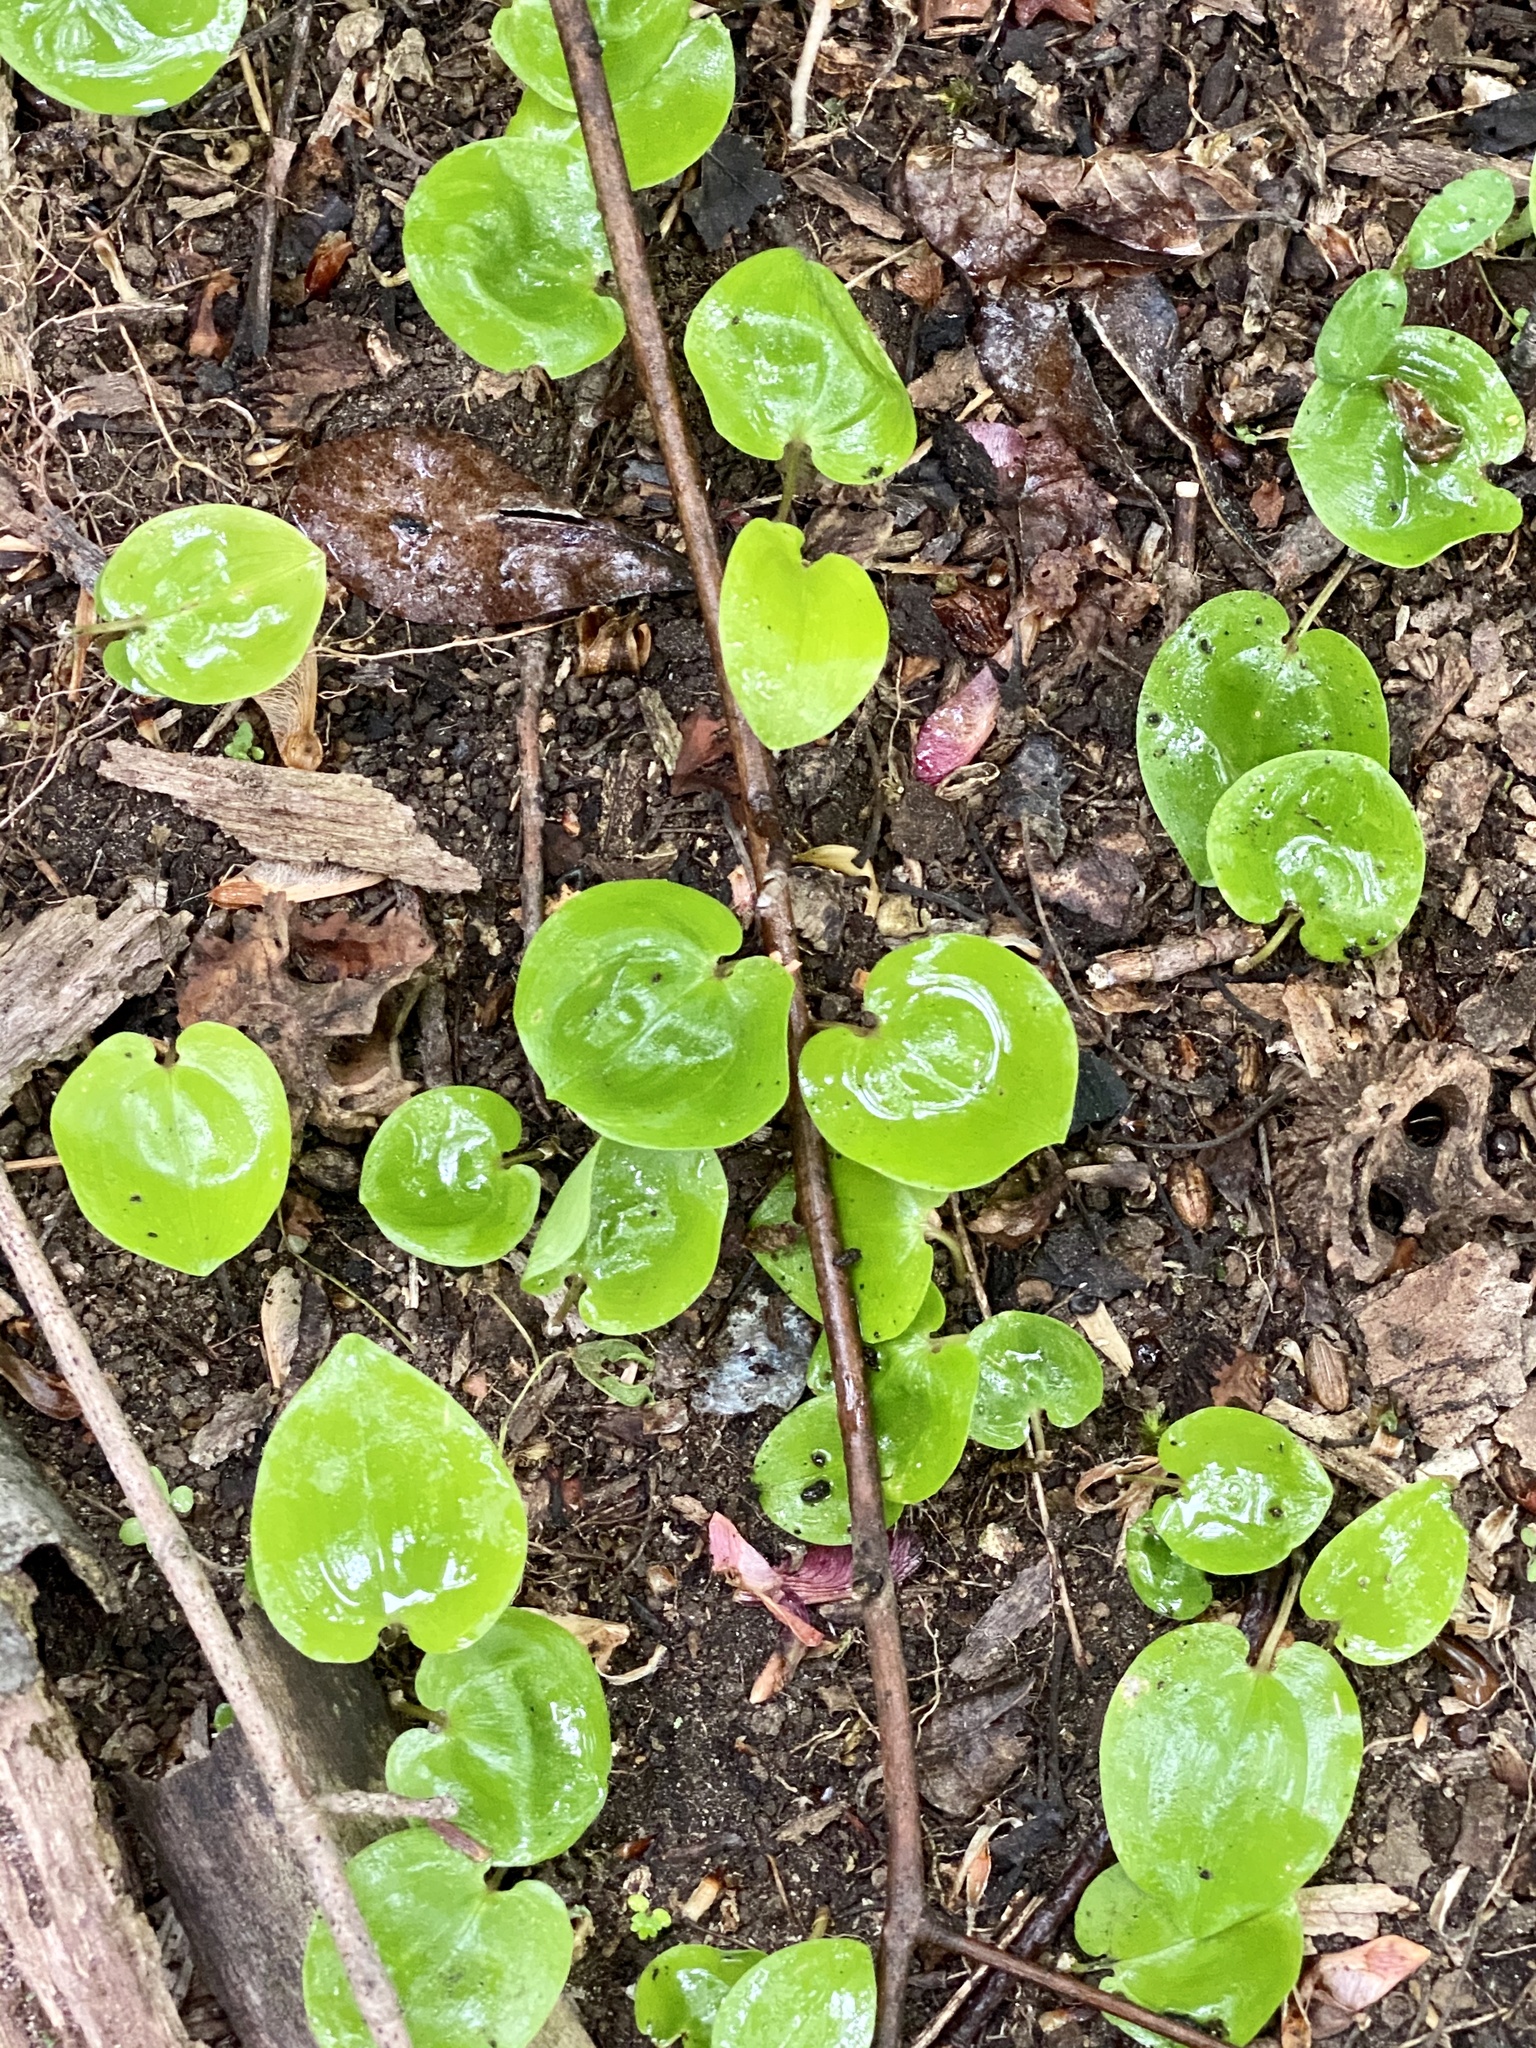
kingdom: Plantae
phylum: Tracheophyta
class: Liliopsida
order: Asparagales
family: Asparagaceae
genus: Maianthemum
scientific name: Maianthemum canadense
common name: False lily-of-the-valley
